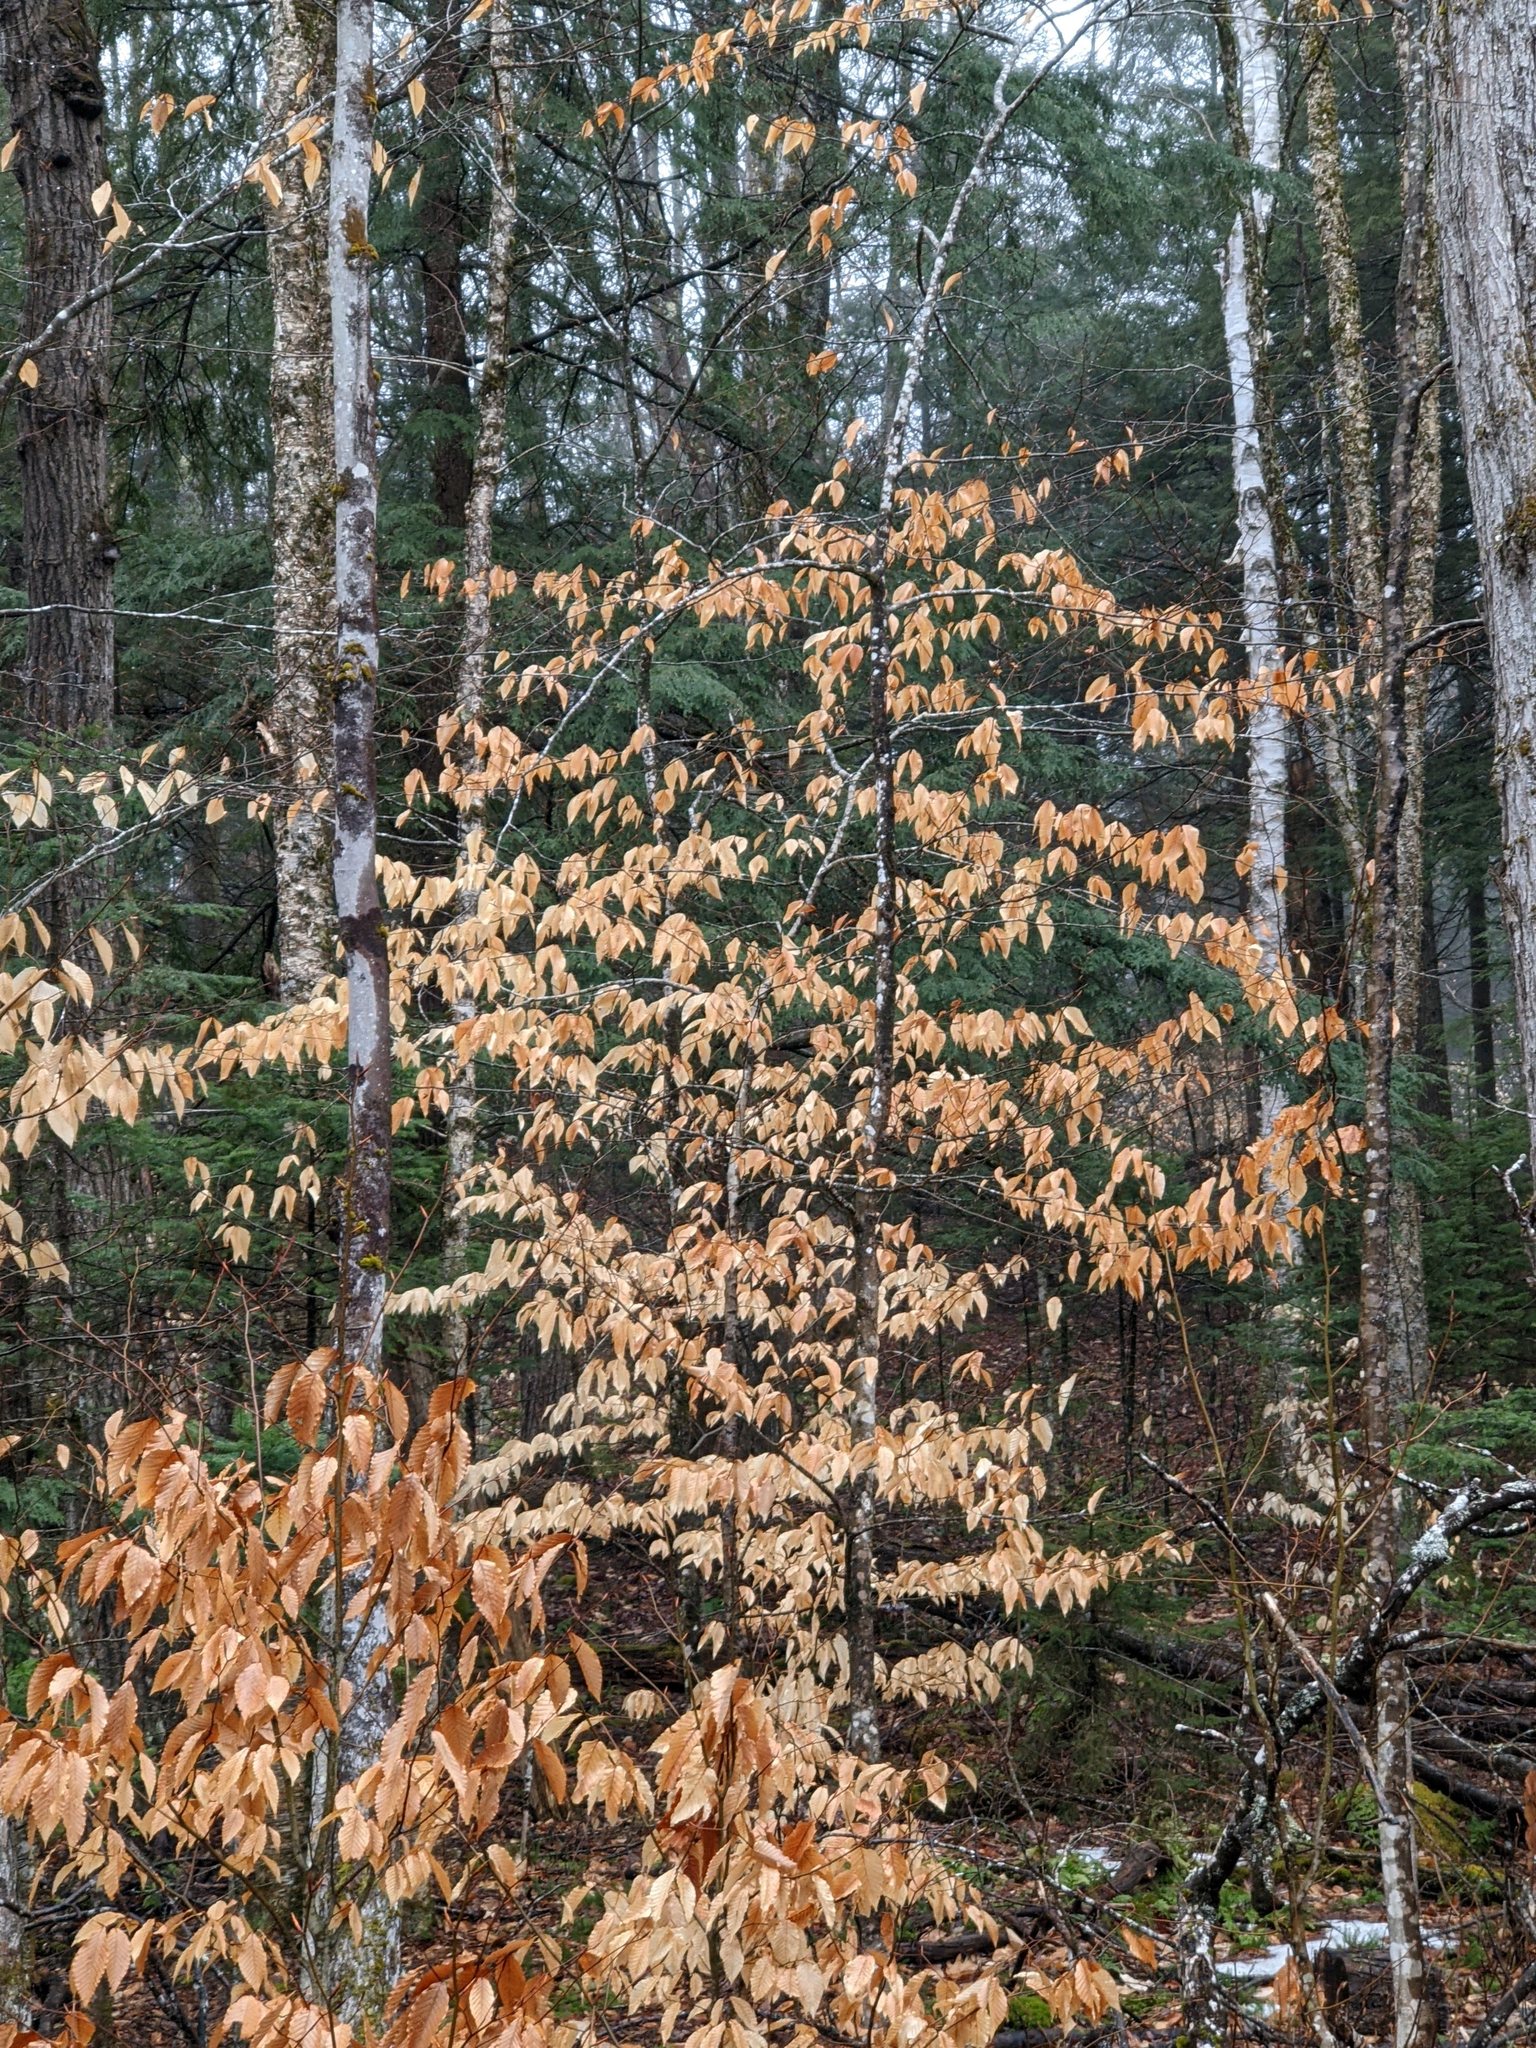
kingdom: Plantae
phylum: Tracheophyta
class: Magnoliopsida
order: Fagales
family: Fagaceae
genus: Fagus
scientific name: Fagus grandifolia
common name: American beech
